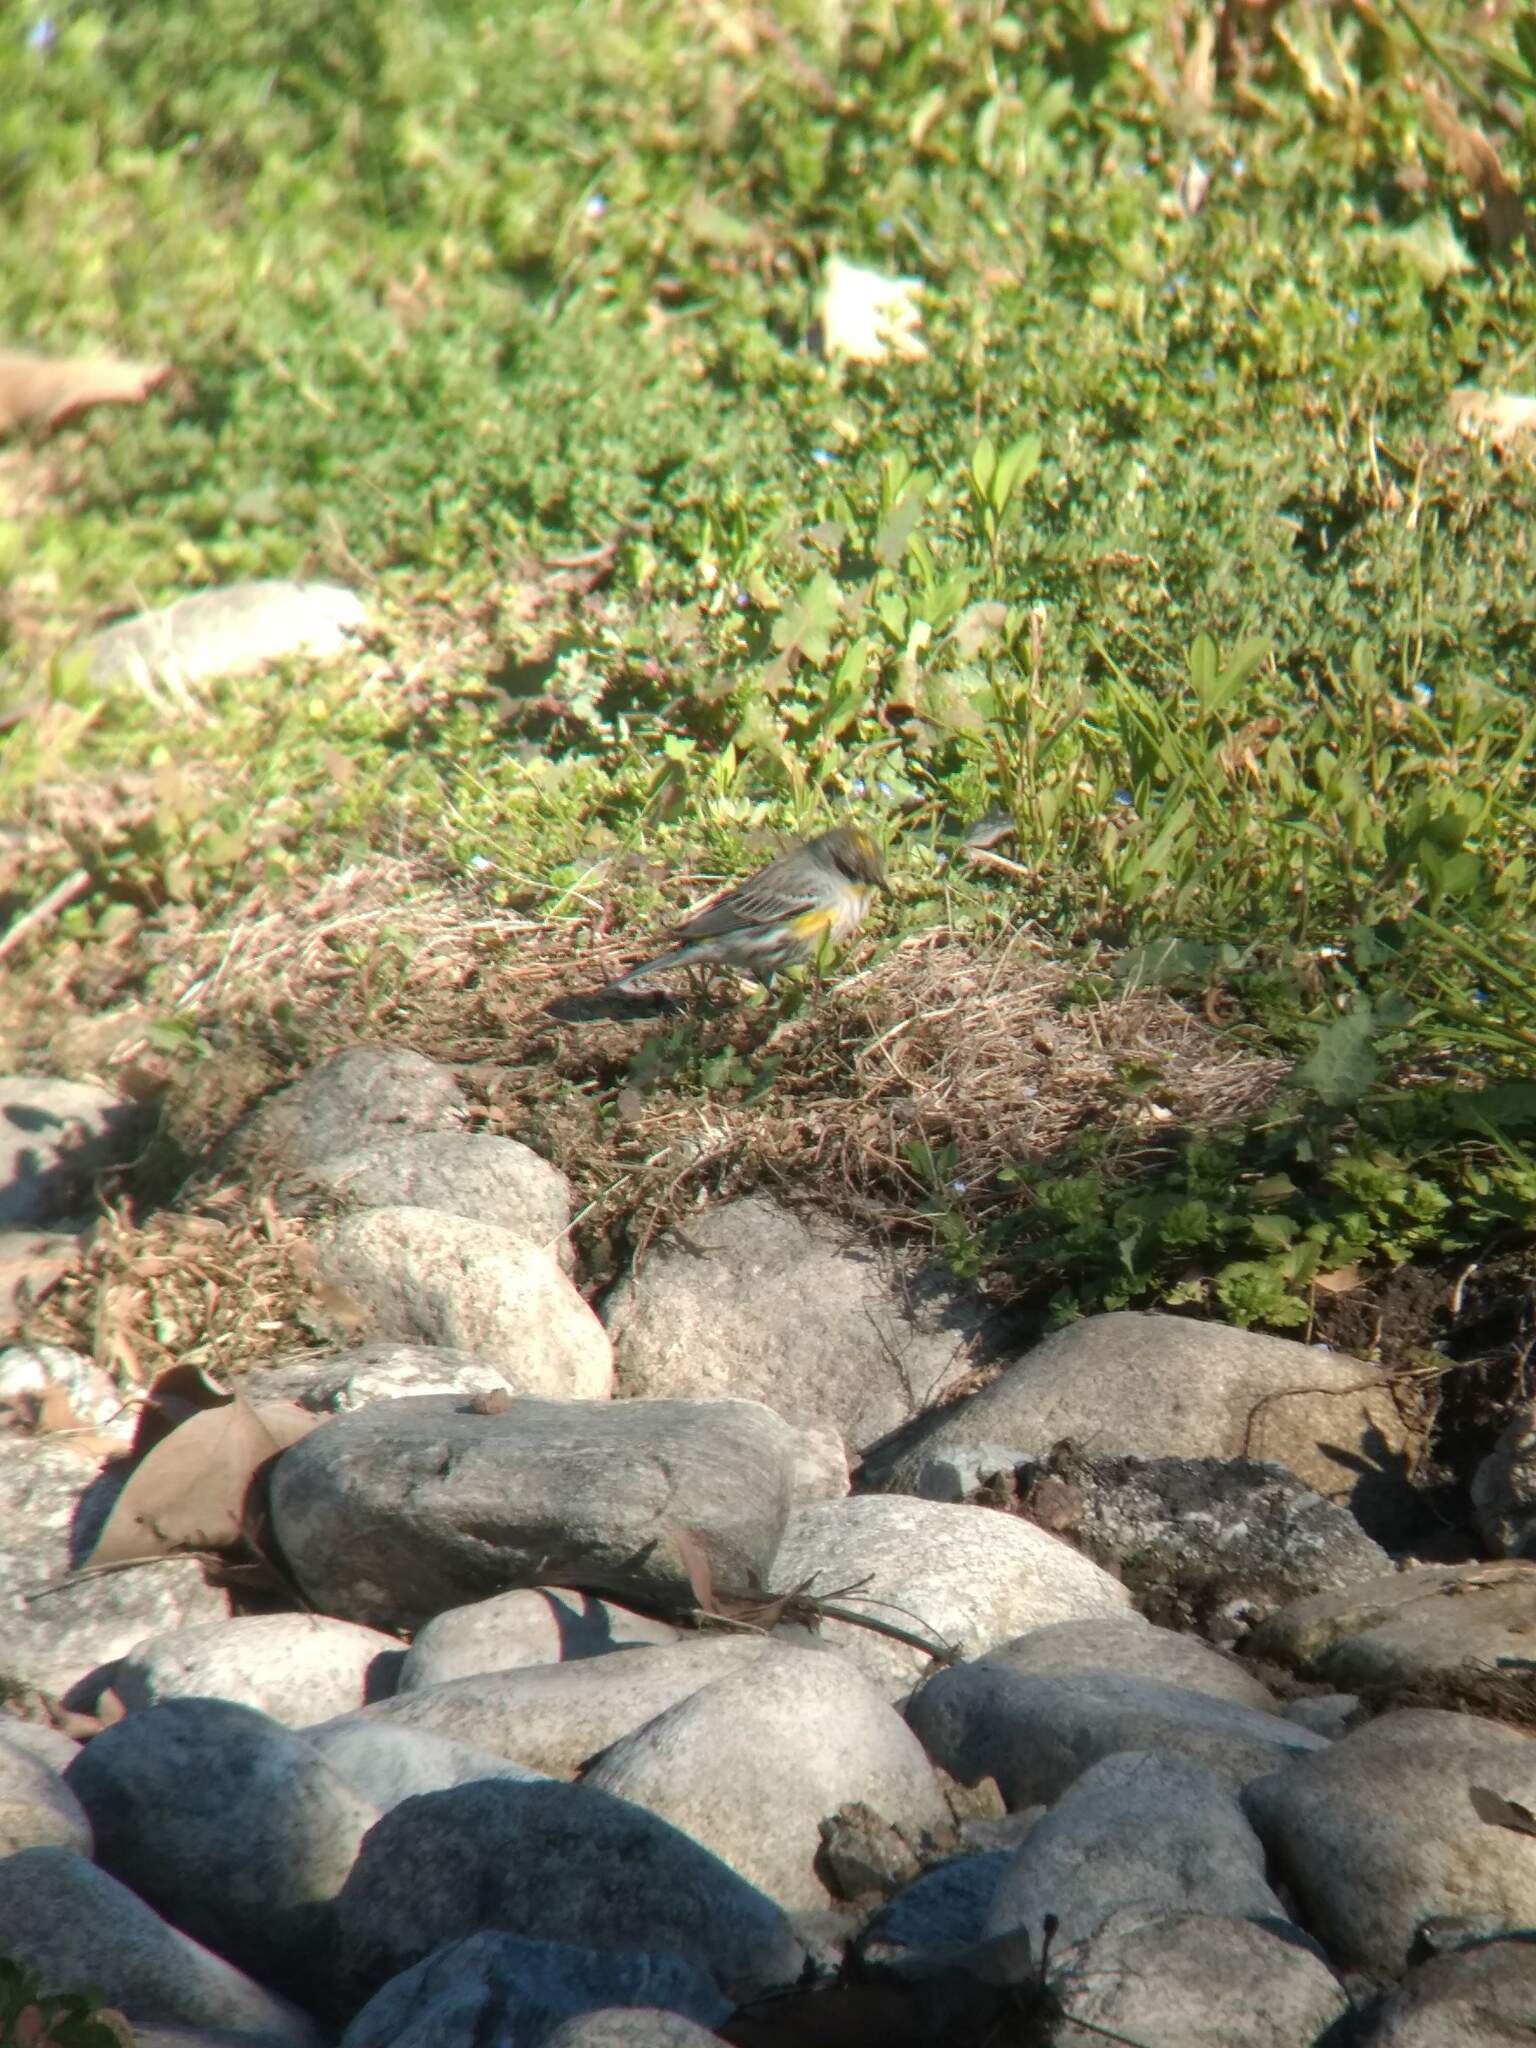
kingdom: Animalia
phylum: Chordata
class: Aves
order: Passeriformes
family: Parulidae
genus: Setophaga
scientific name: Setophaga coronata
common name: Myrtle warbler
